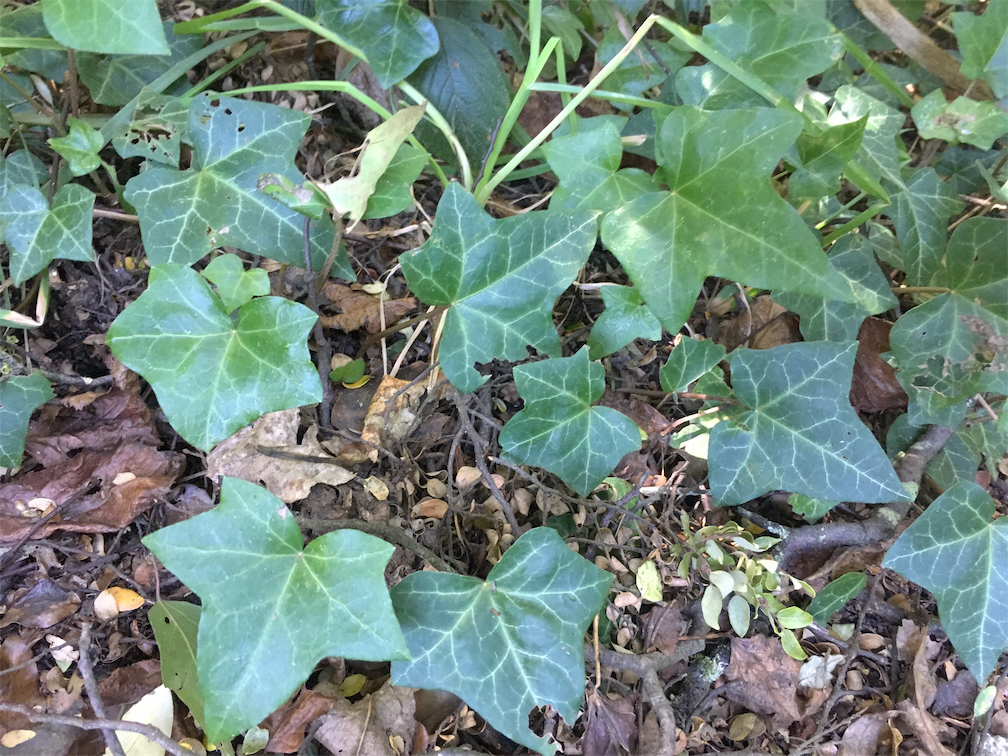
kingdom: Plantae
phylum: Tracheophyta
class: Magnoliopsida
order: Apiales
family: Araliaceae
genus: Hedera
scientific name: Hedera helix
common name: Ivy
